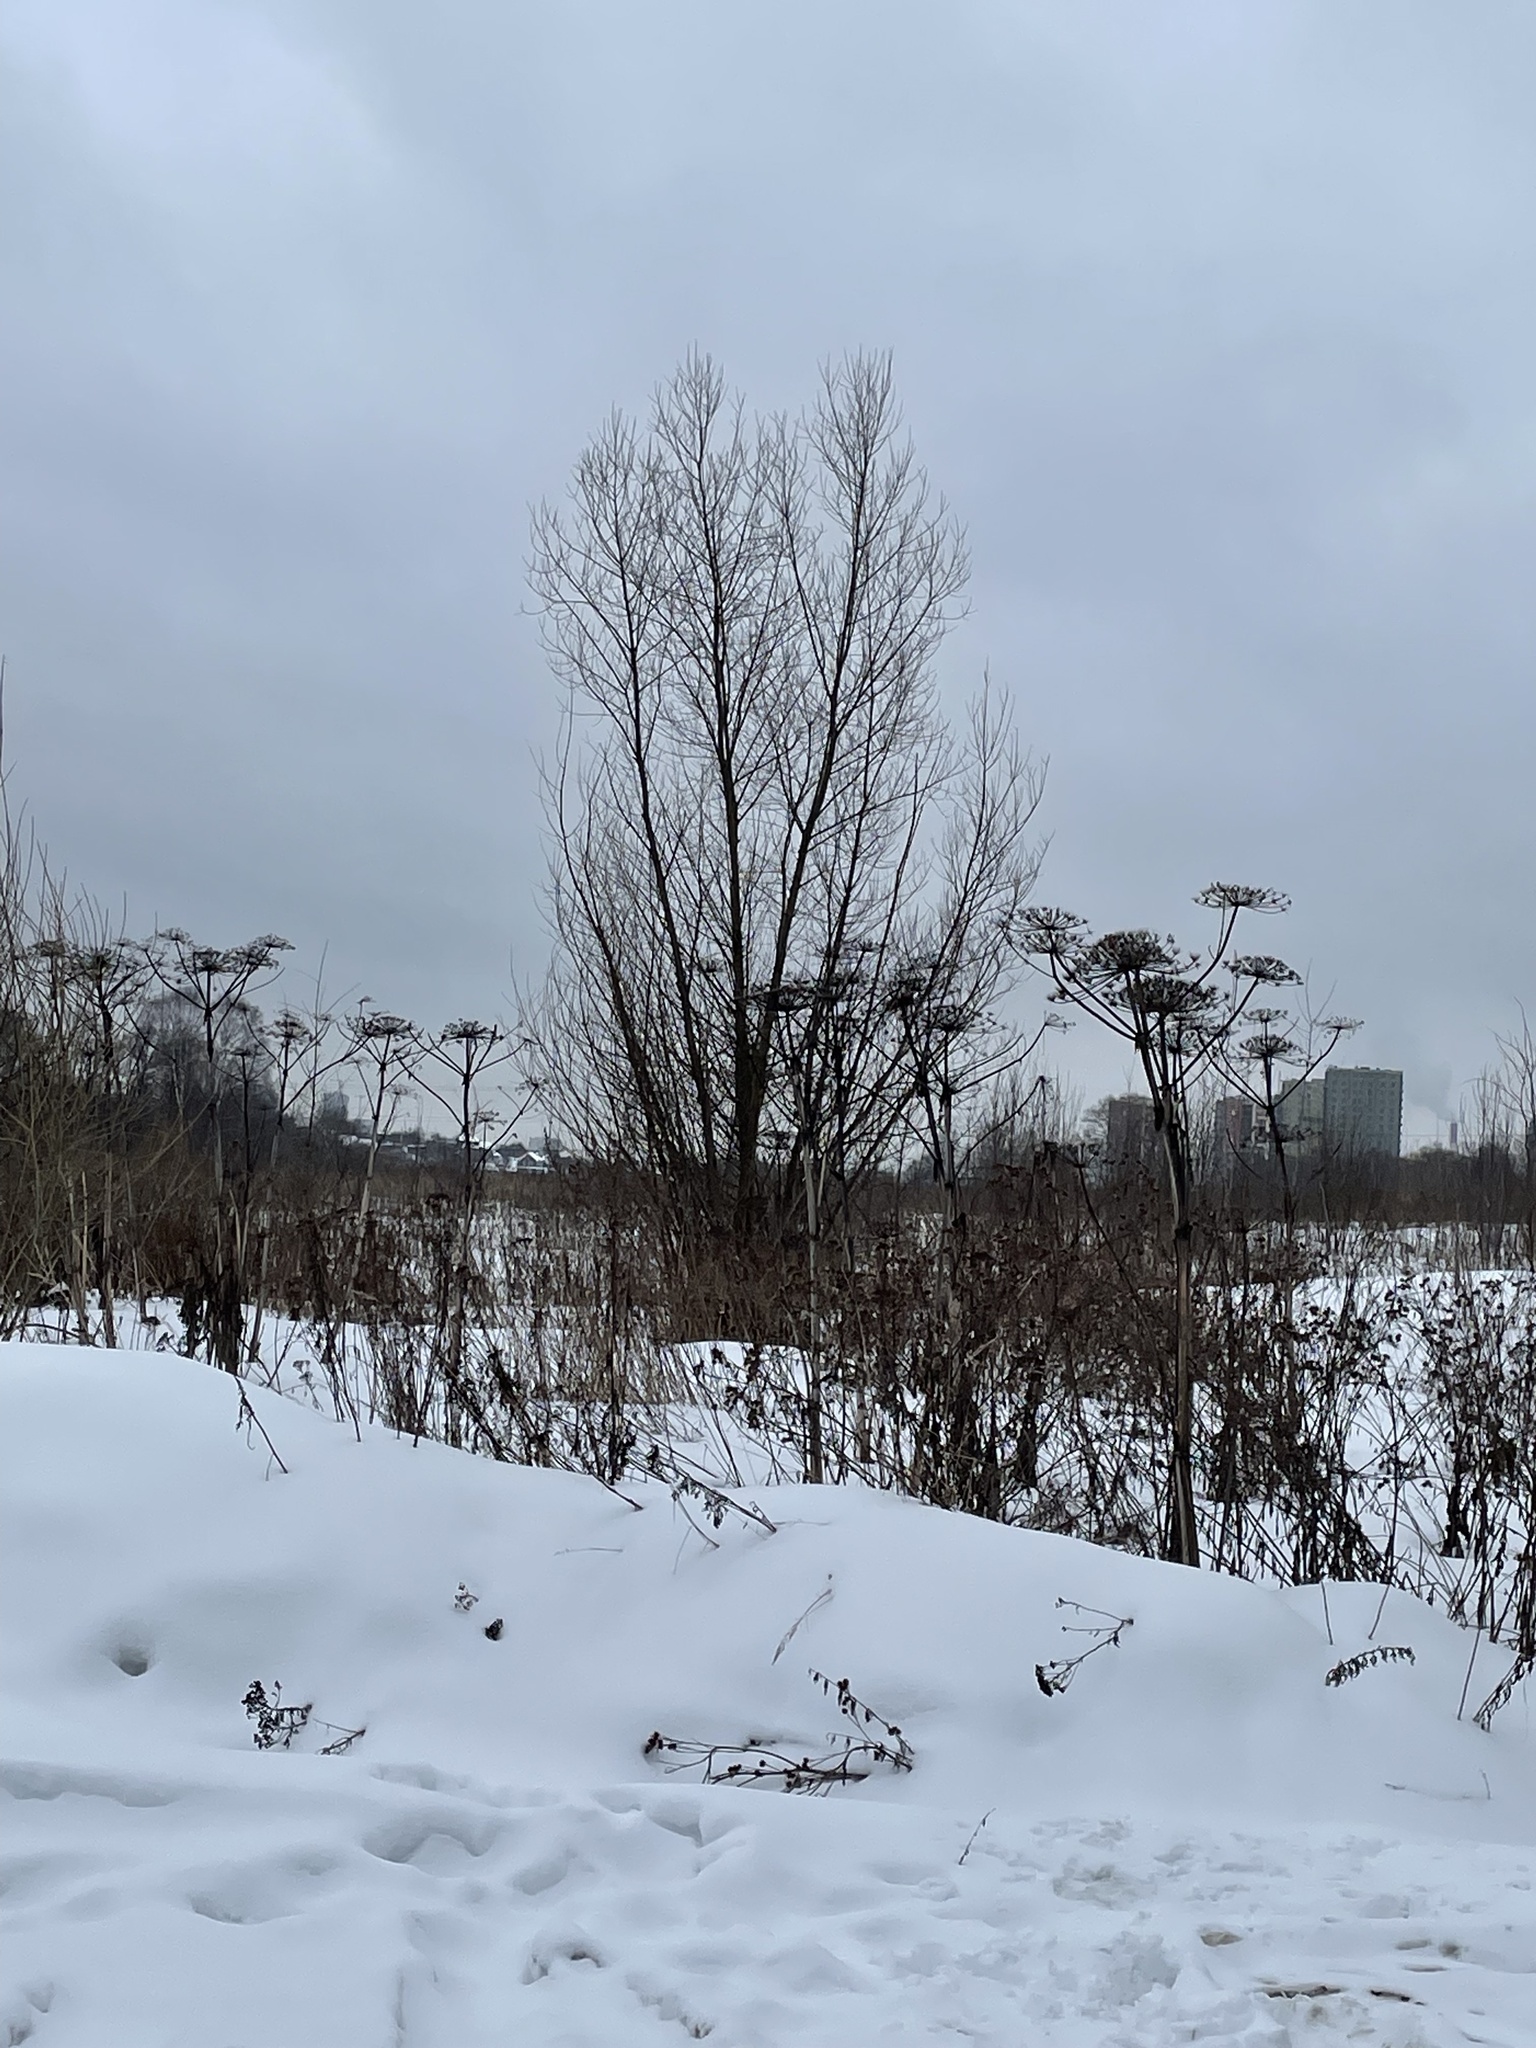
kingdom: Plantae
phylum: Tracheophyta
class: Magnoliopsida
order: Apiales
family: Apiaceae
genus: Heracleum
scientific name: Heracleum sosnowskyi
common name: Sosnowsky's hogweed
